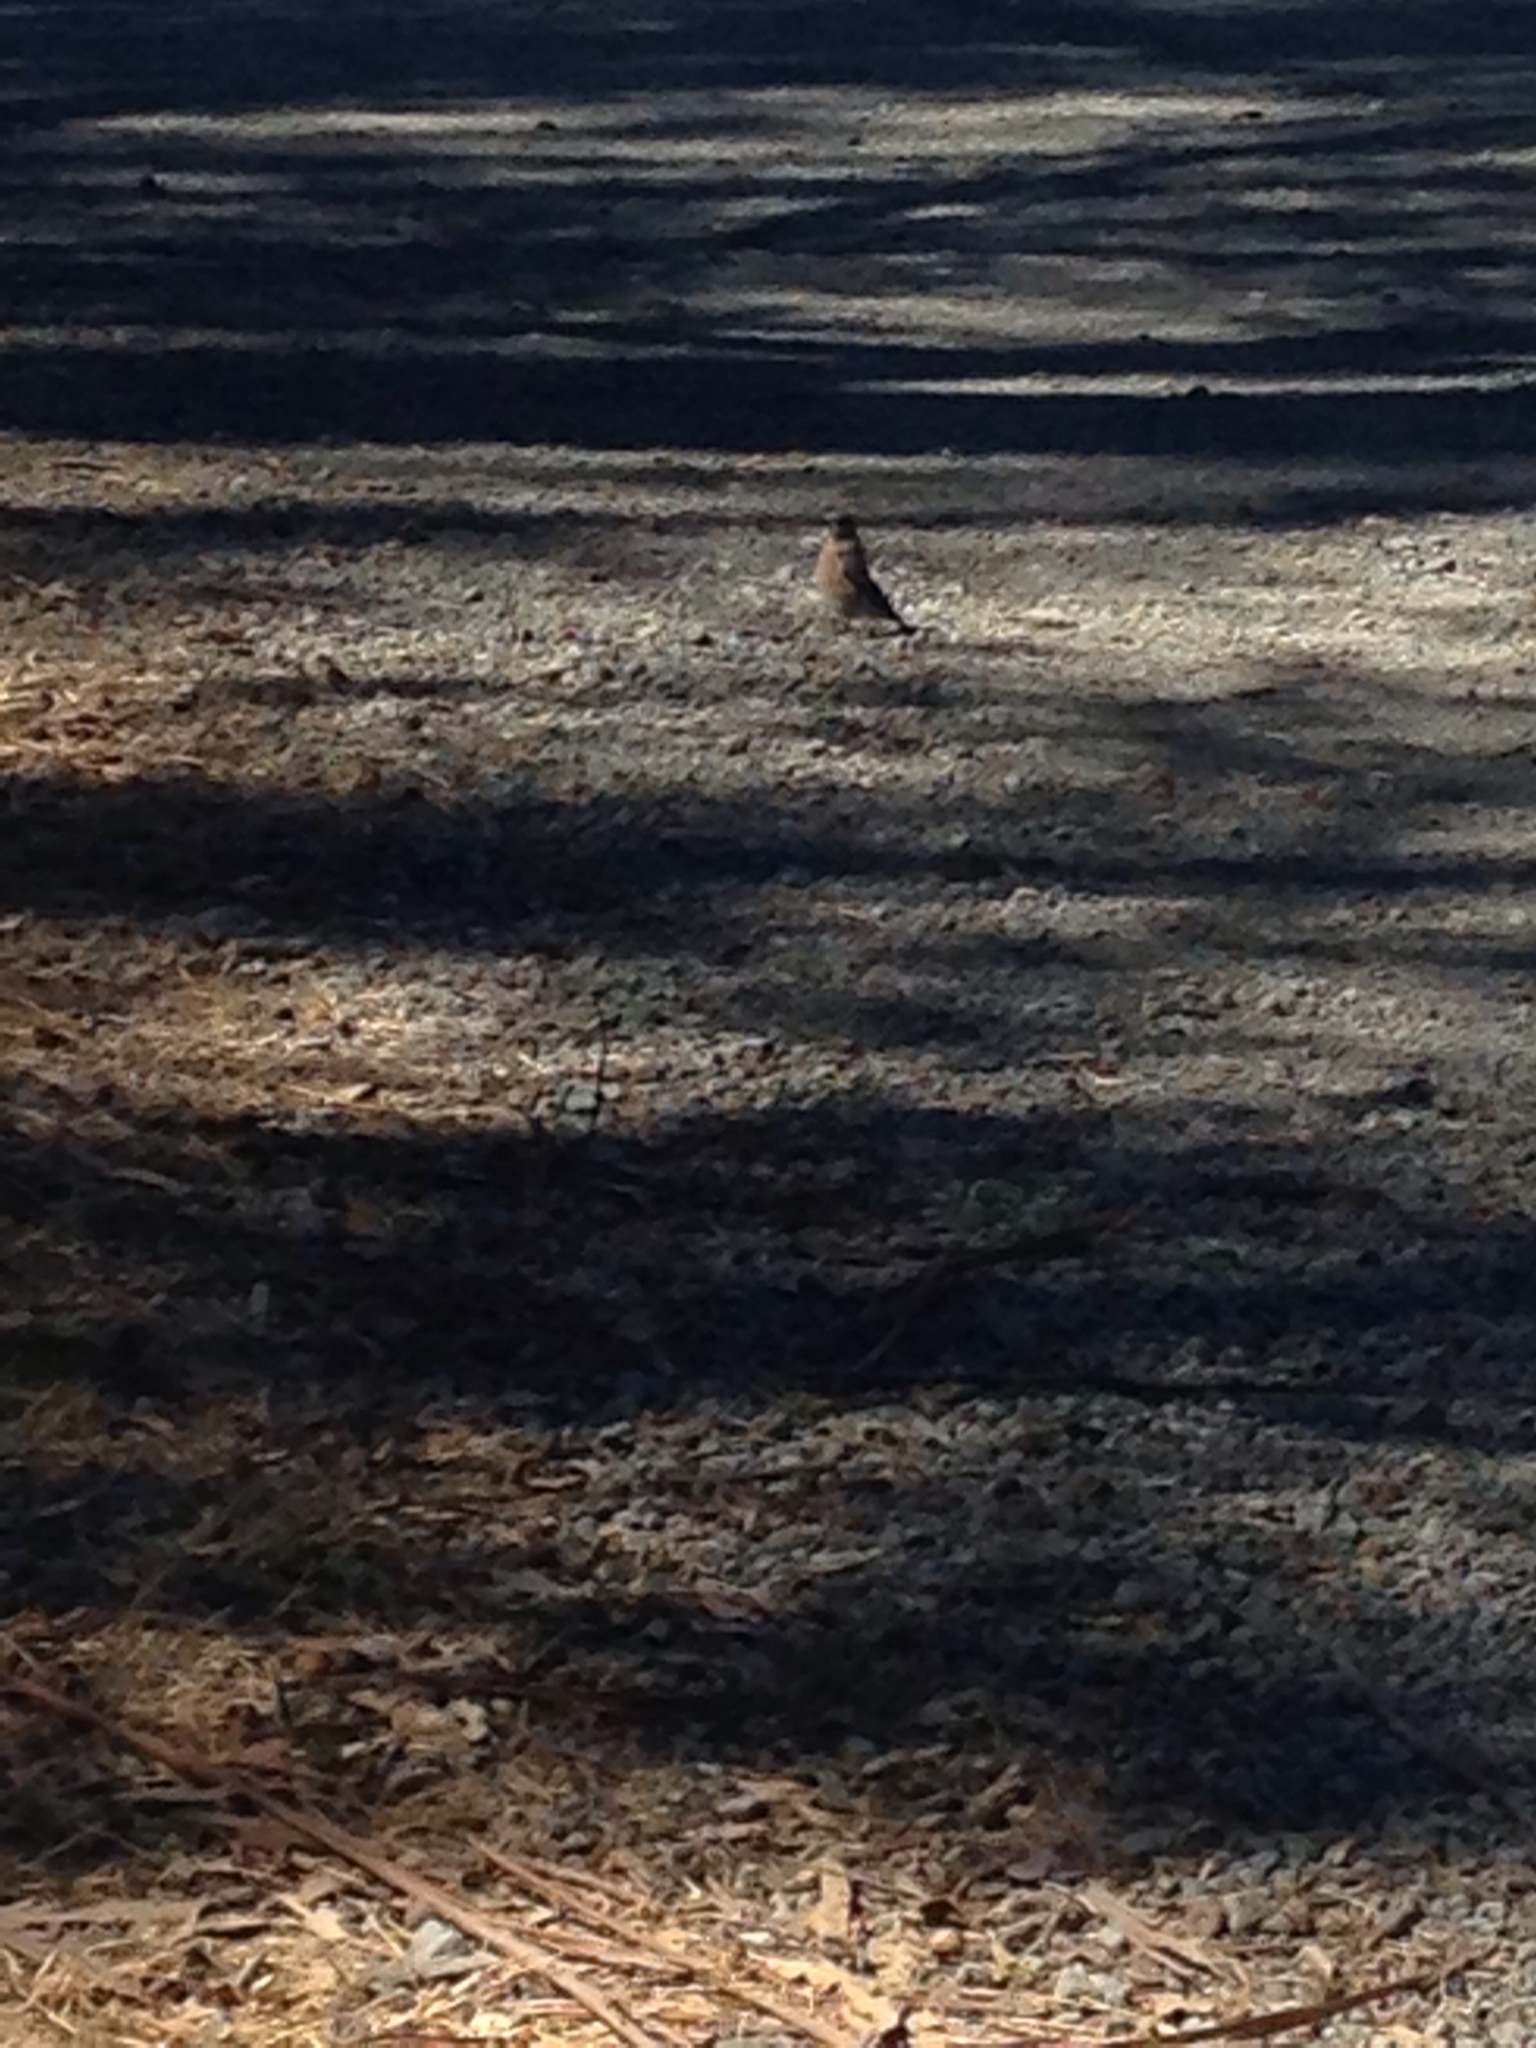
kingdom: Animalia
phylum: Chordata
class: Aves
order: Passeriformes
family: Turdidae
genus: Sialia
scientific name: Sialia mexicana
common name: Western bluebird
